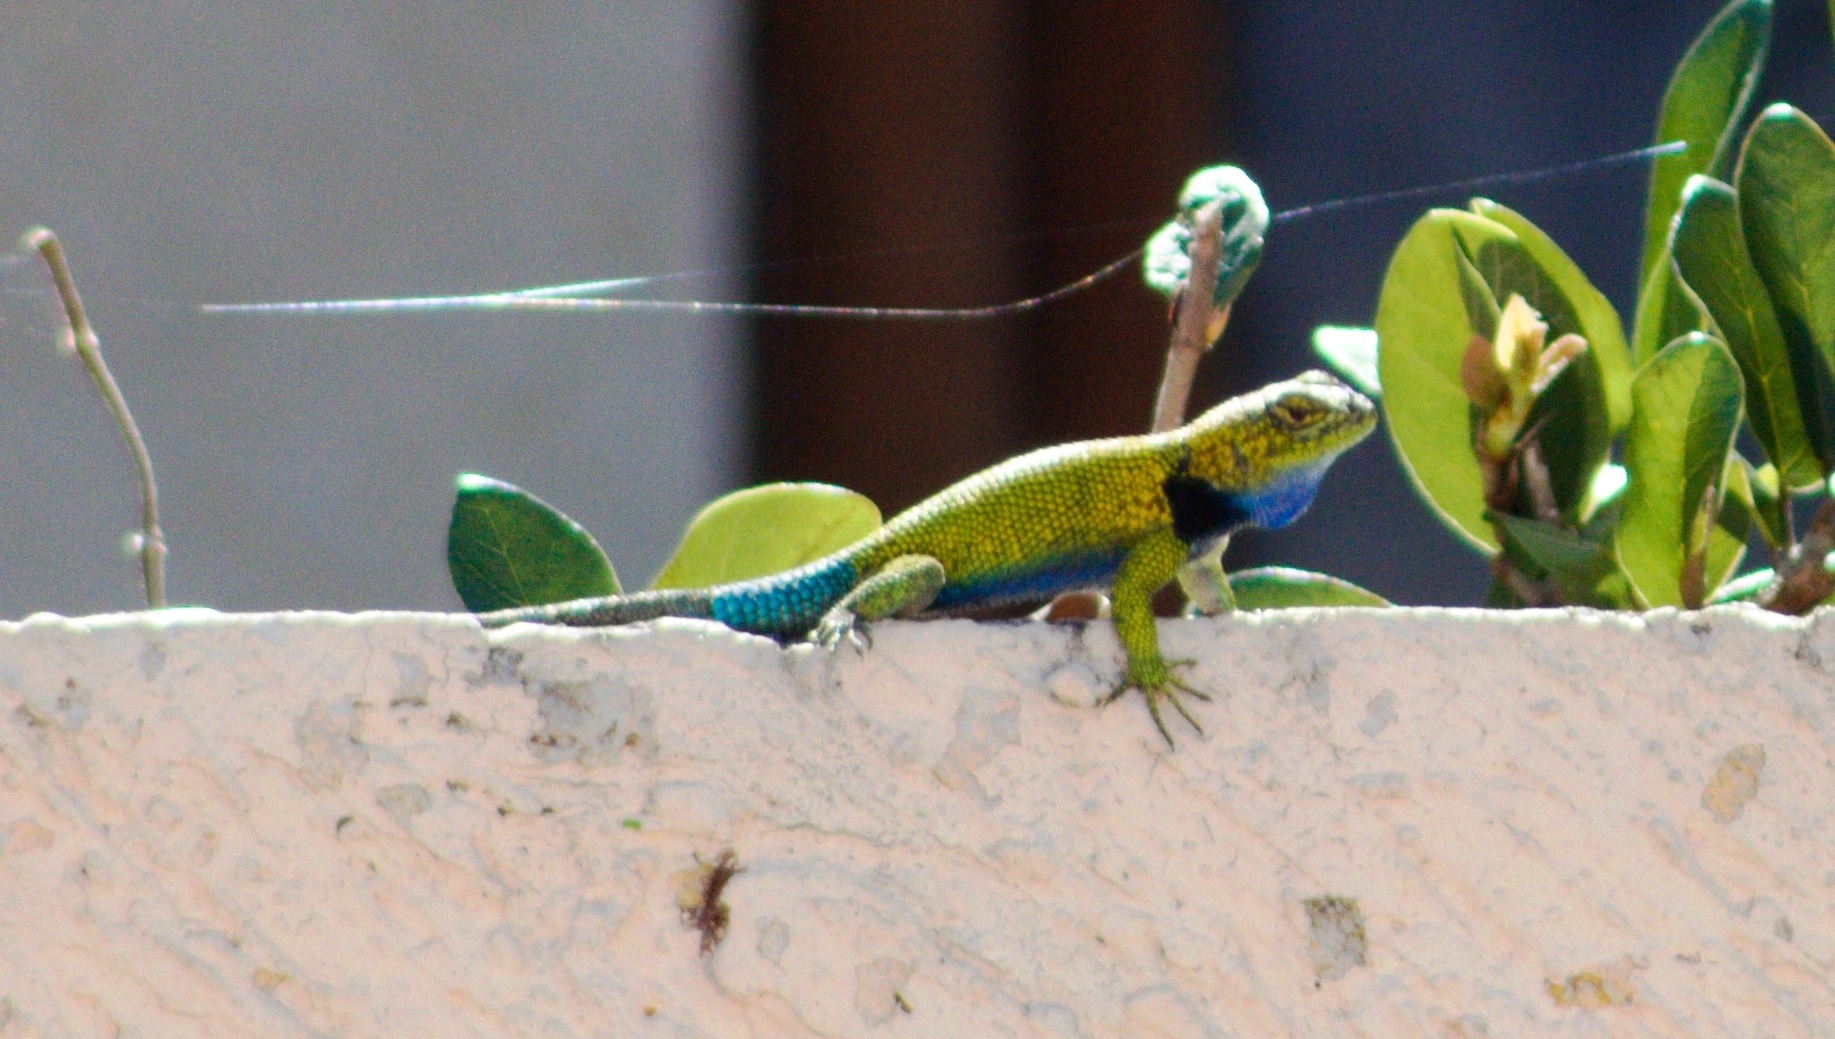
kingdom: Animalia
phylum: Chordata
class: Squamata
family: Phrynosomatidae
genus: Sceloporus
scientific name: Sceloporus taeniocnemis
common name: Guatemalan emerald spiny lizard
